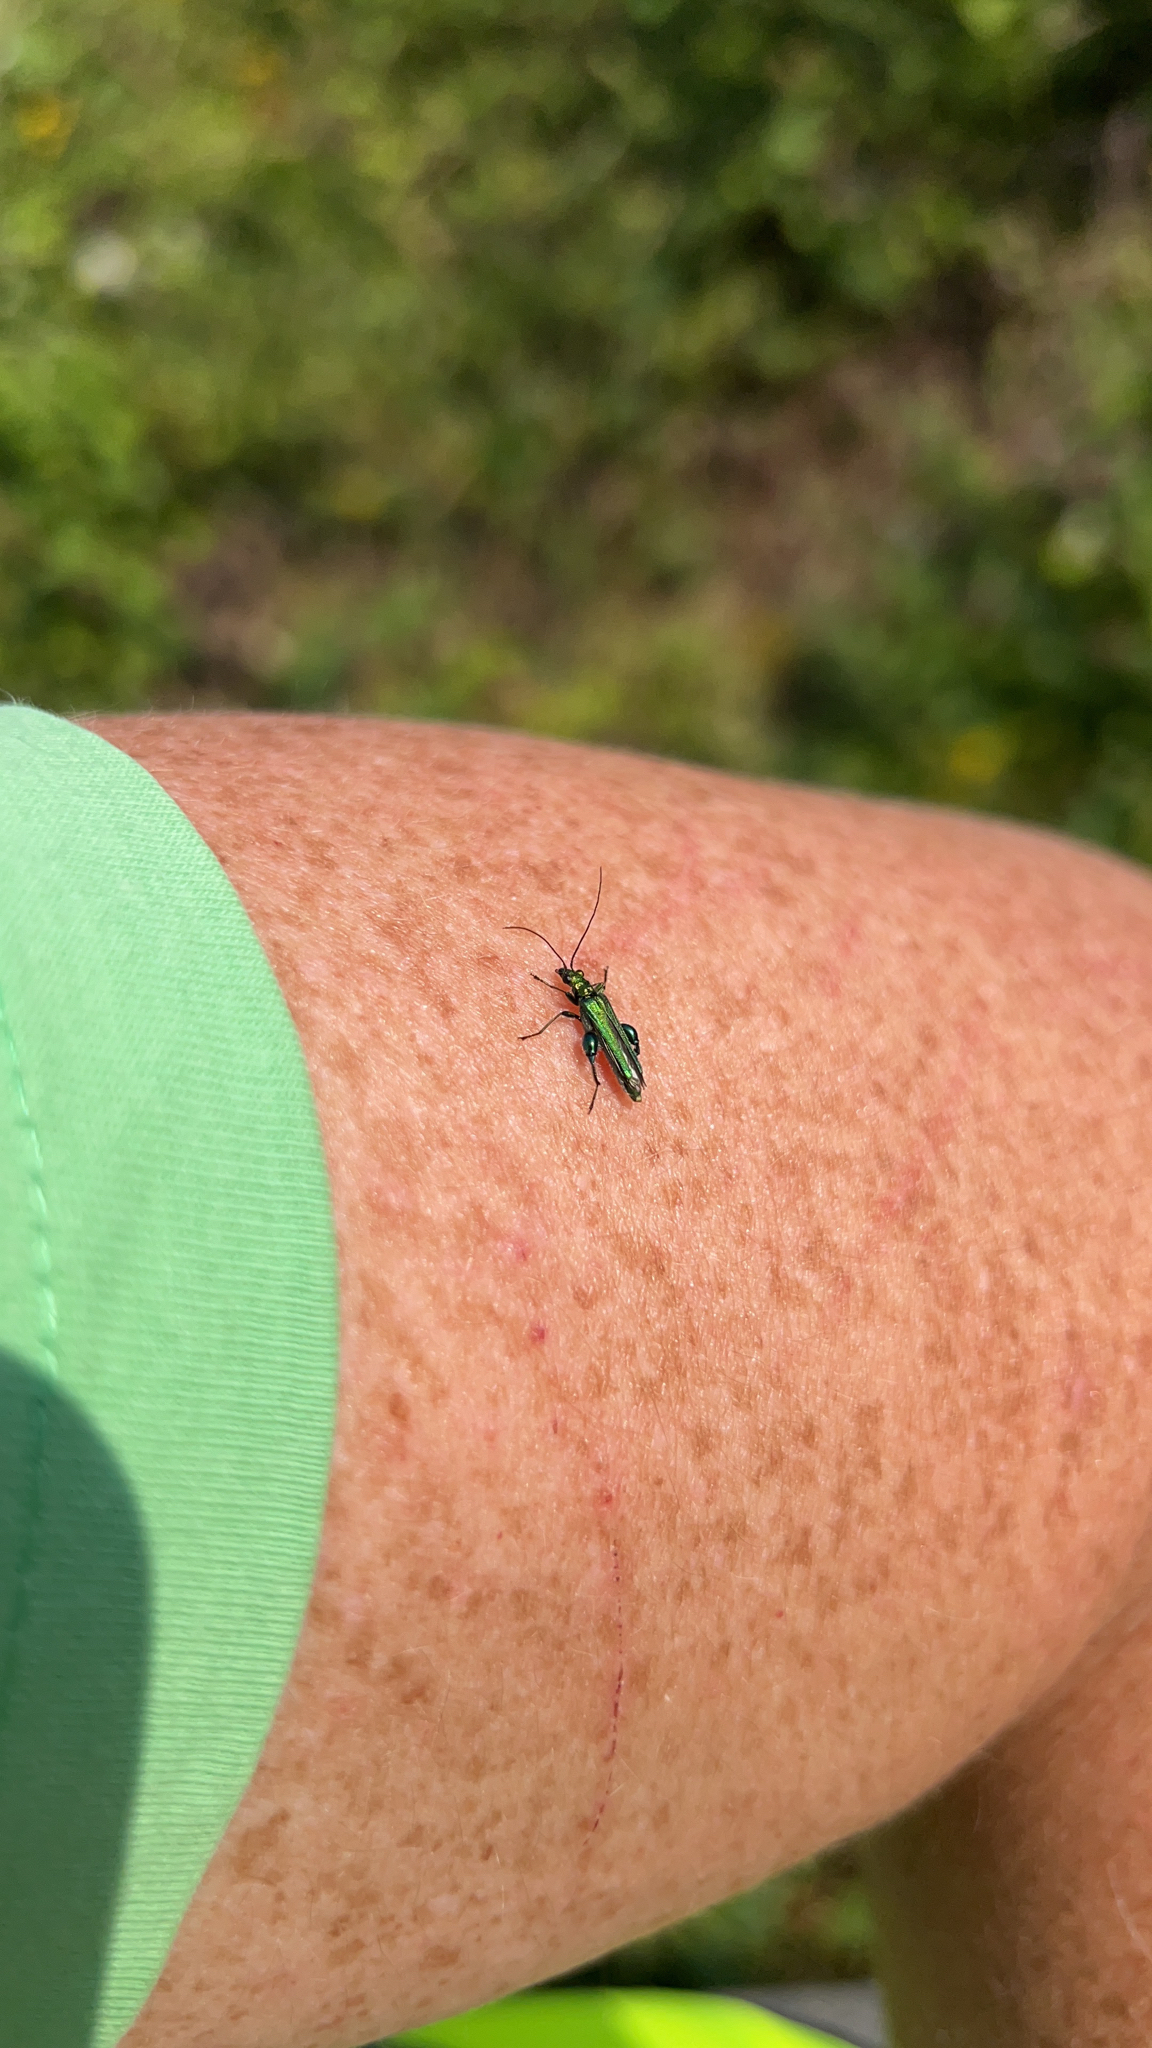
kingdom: Animalia
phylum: Arthropoda
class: Insecta
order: Coleoptera
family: Oedemeridae
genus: Oedemera
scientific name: Oedemera nobilis
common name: Swollen-thighed beetle
